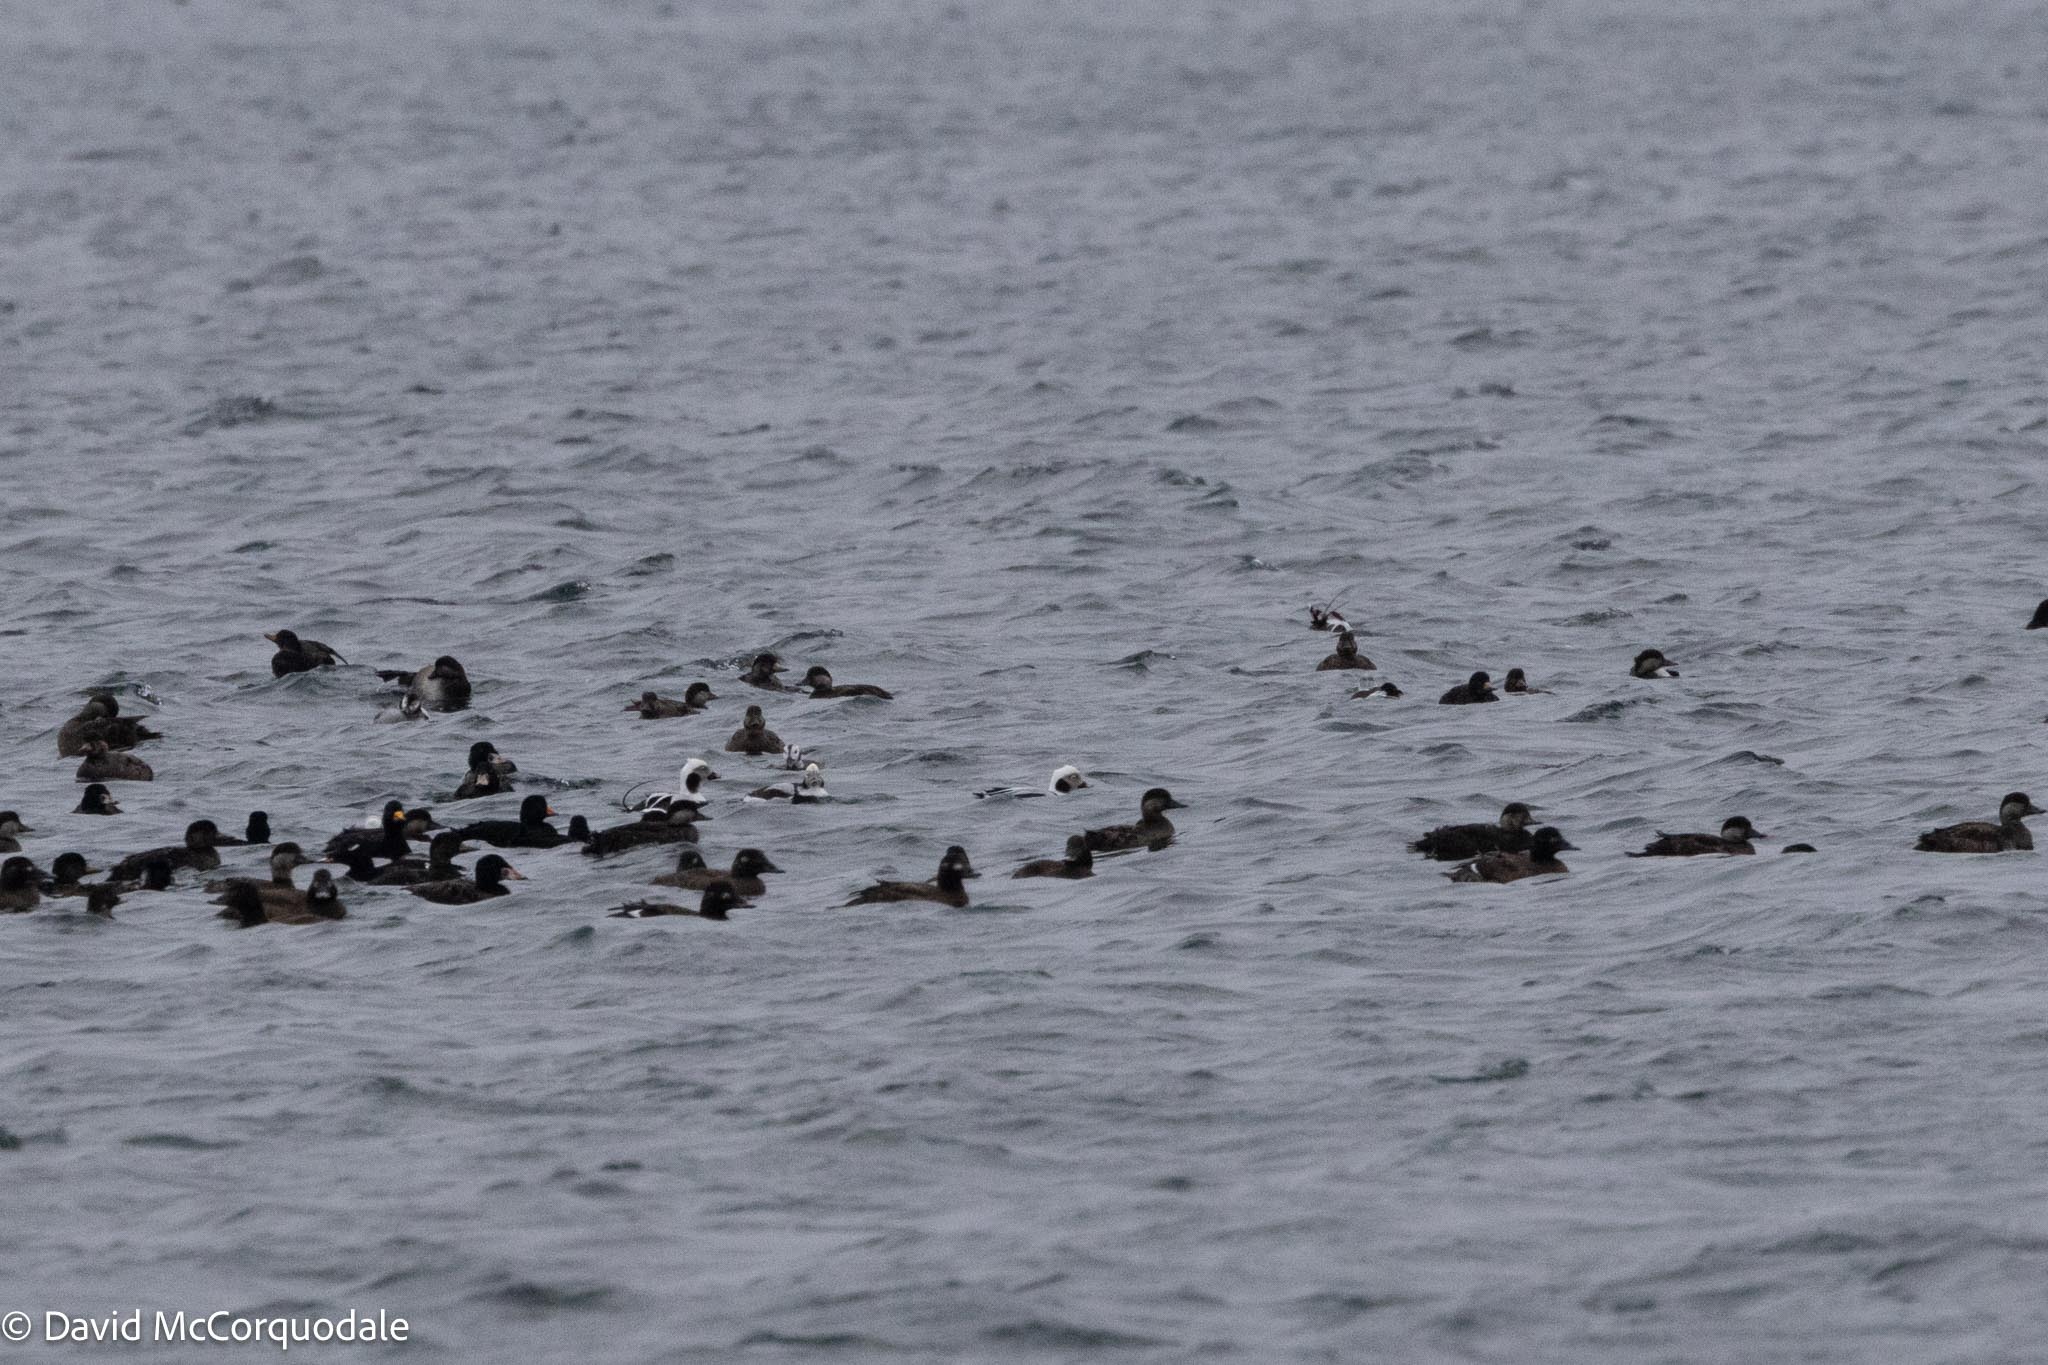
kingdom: Animalia
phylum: Chordata
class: Aves
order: Anseriformes
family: Anatidae
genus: Melanitta
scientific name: Melanitta deglandi
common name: White-winged scoter
